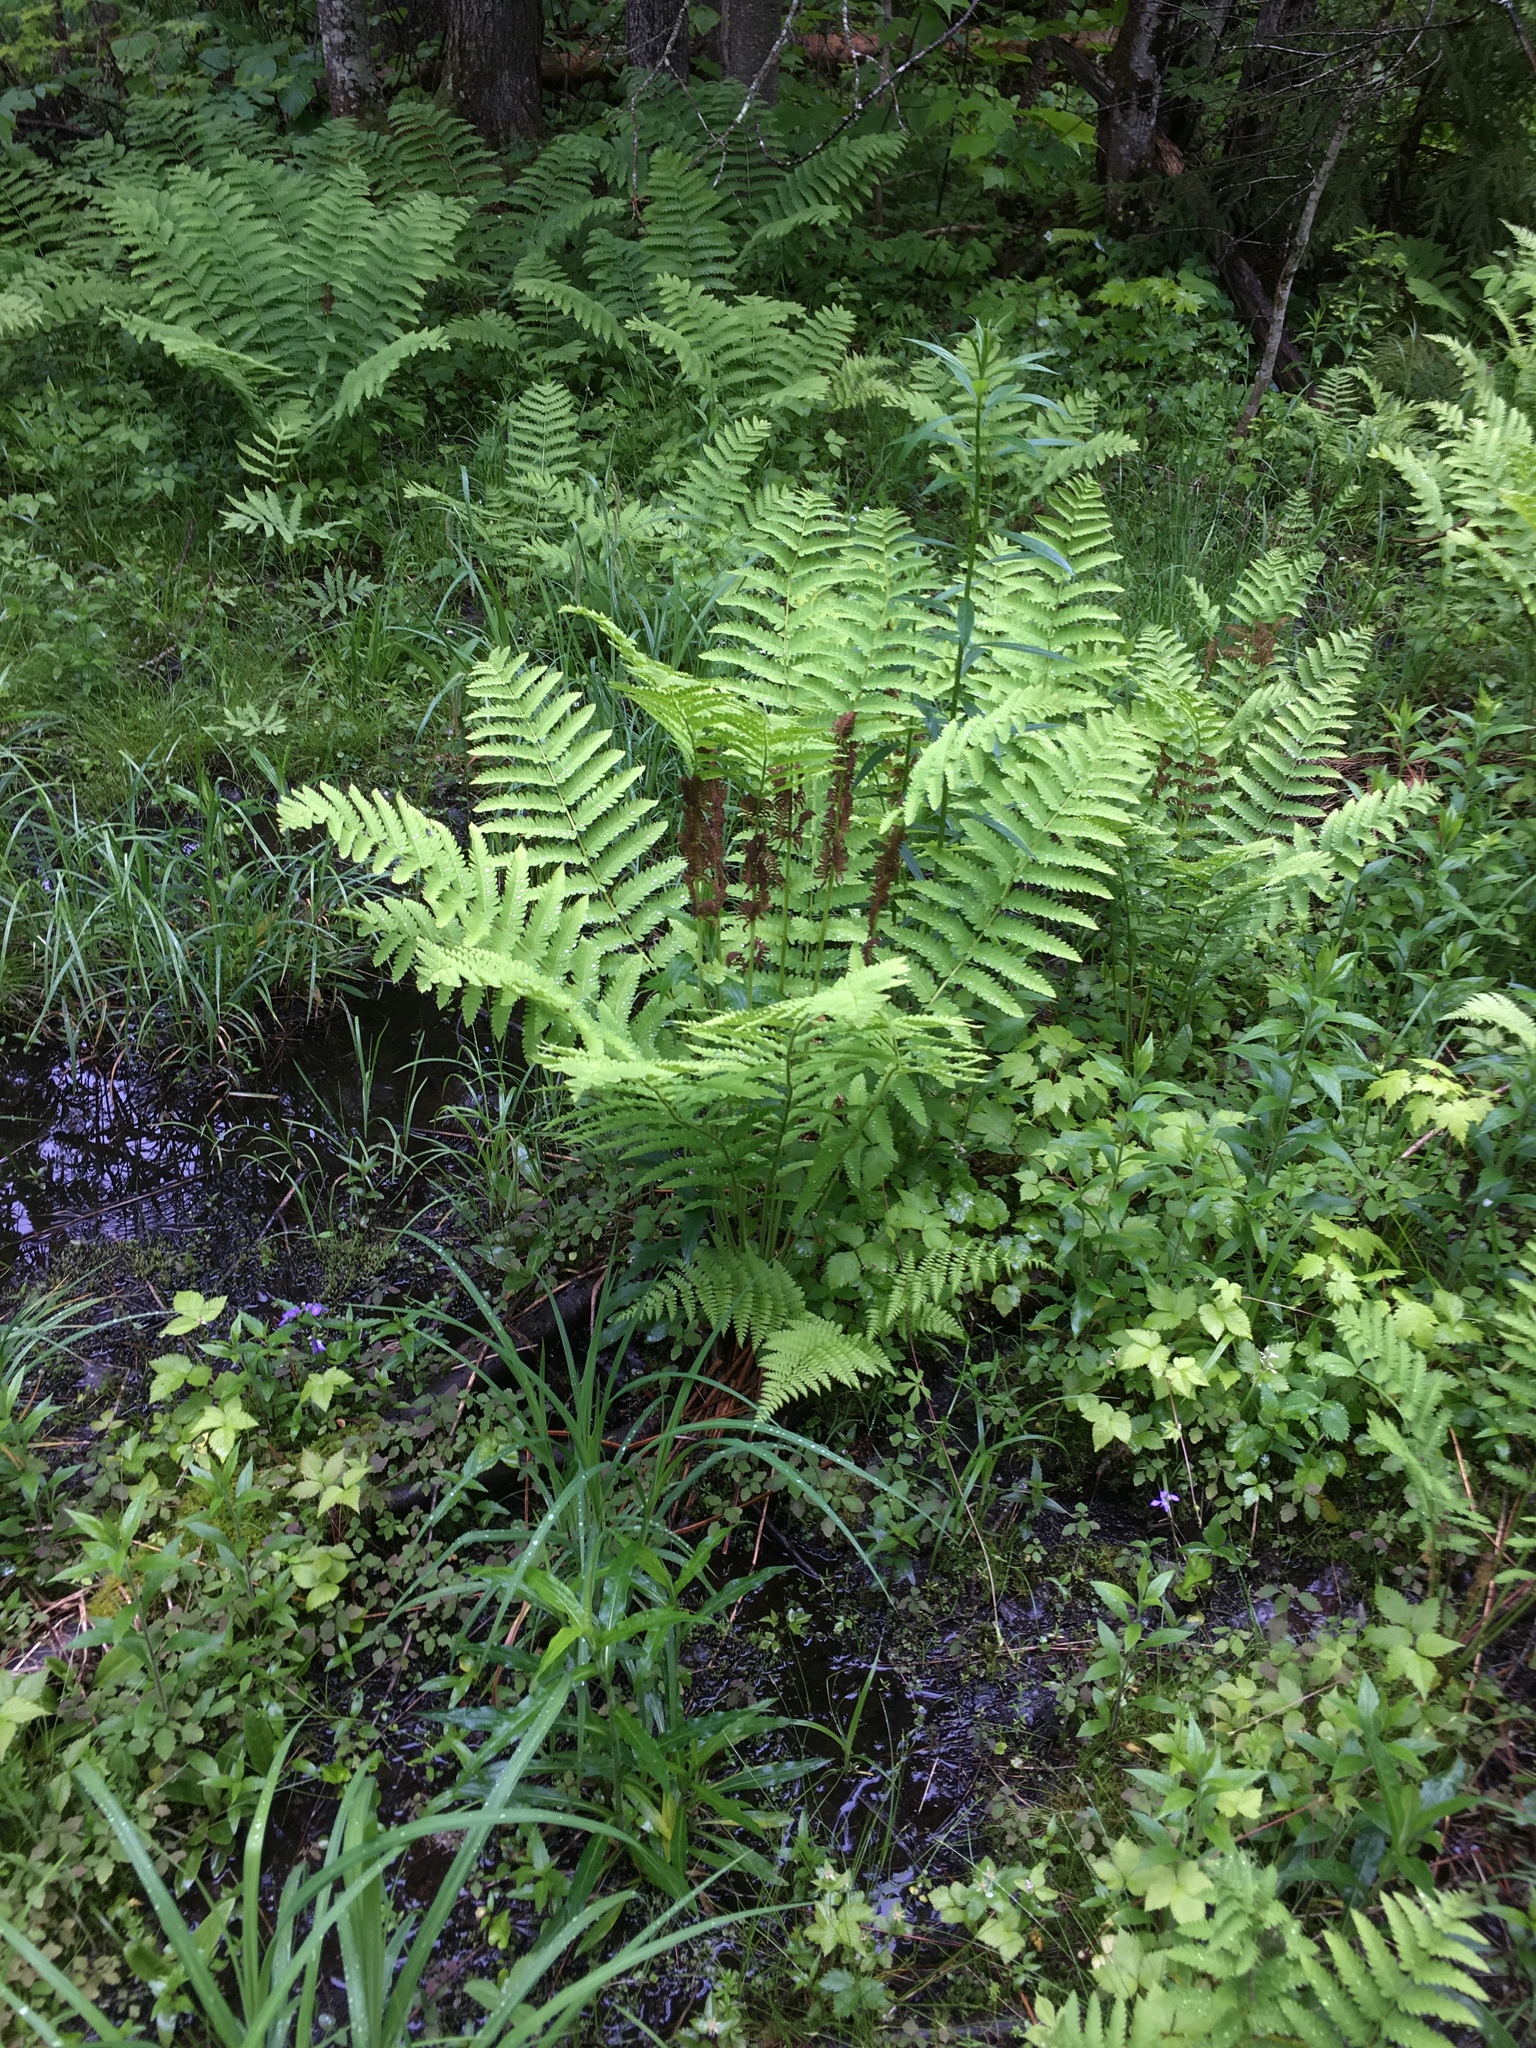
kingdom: Plantae
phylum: Tracheophyta
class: Polypodiopsida
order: Osmundales
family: Osmundaceae
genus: Claytosmunda
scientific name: Claytosmunda claytoniana
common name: Clayton's fern
